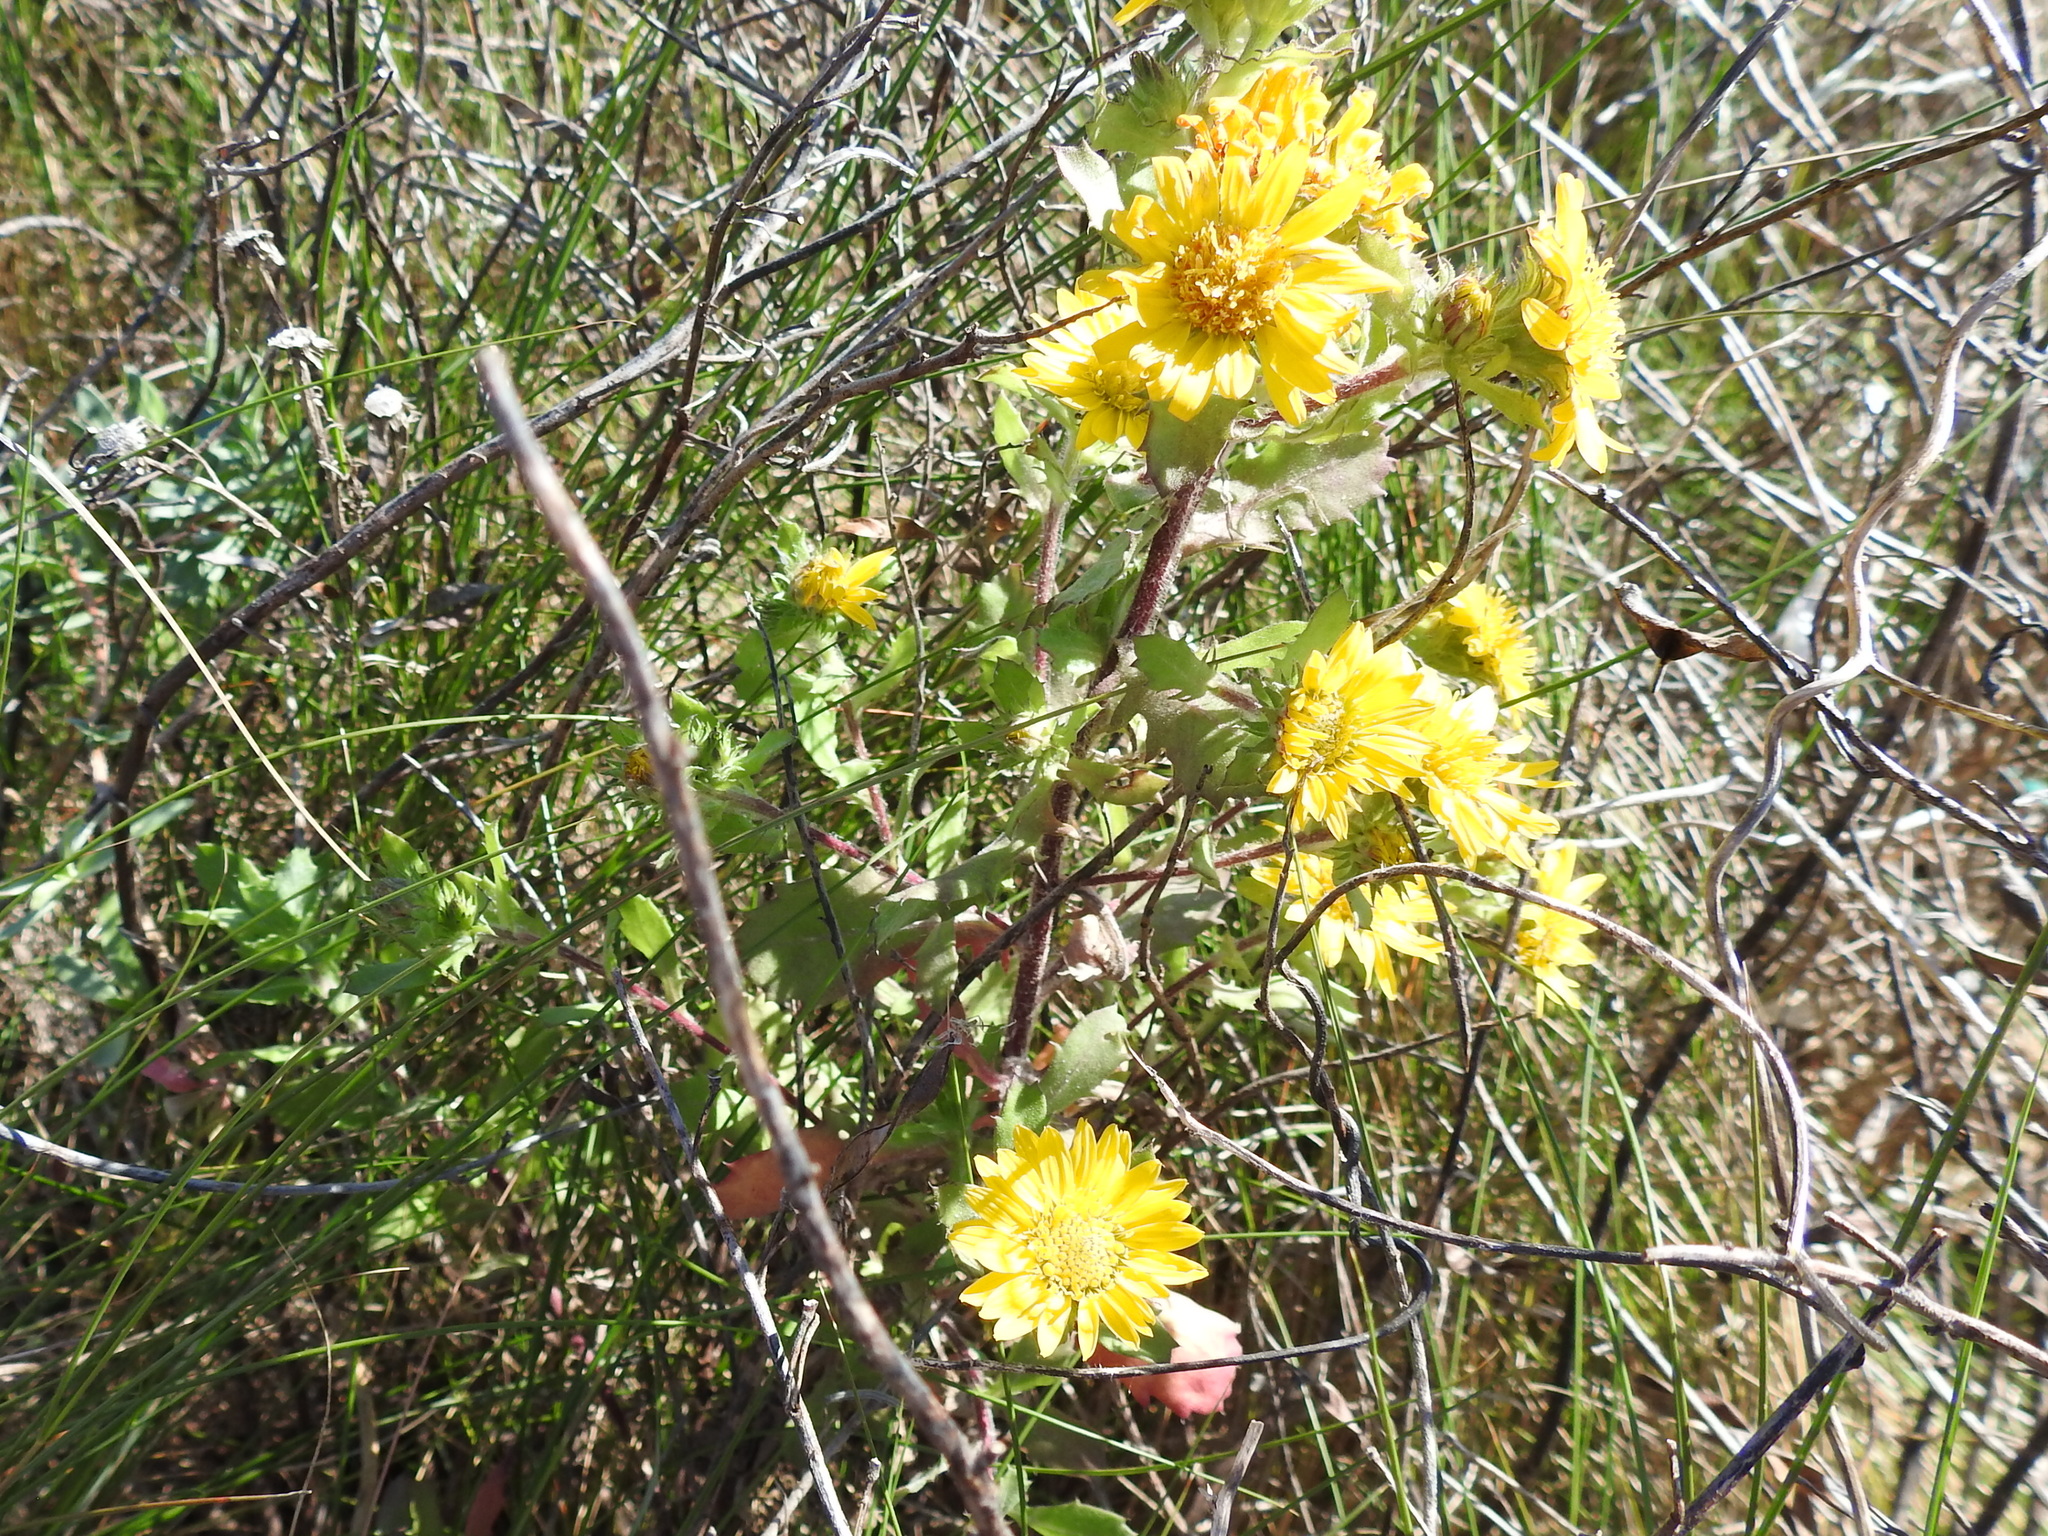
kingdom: Plantae
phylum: Tracheophyta
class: Magnoliopsida
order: Asterales
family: Asteraceae
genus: Rayjacksonia
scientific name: Rayjacksonia phyllocephala
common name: Gulf coast camphor daisy
